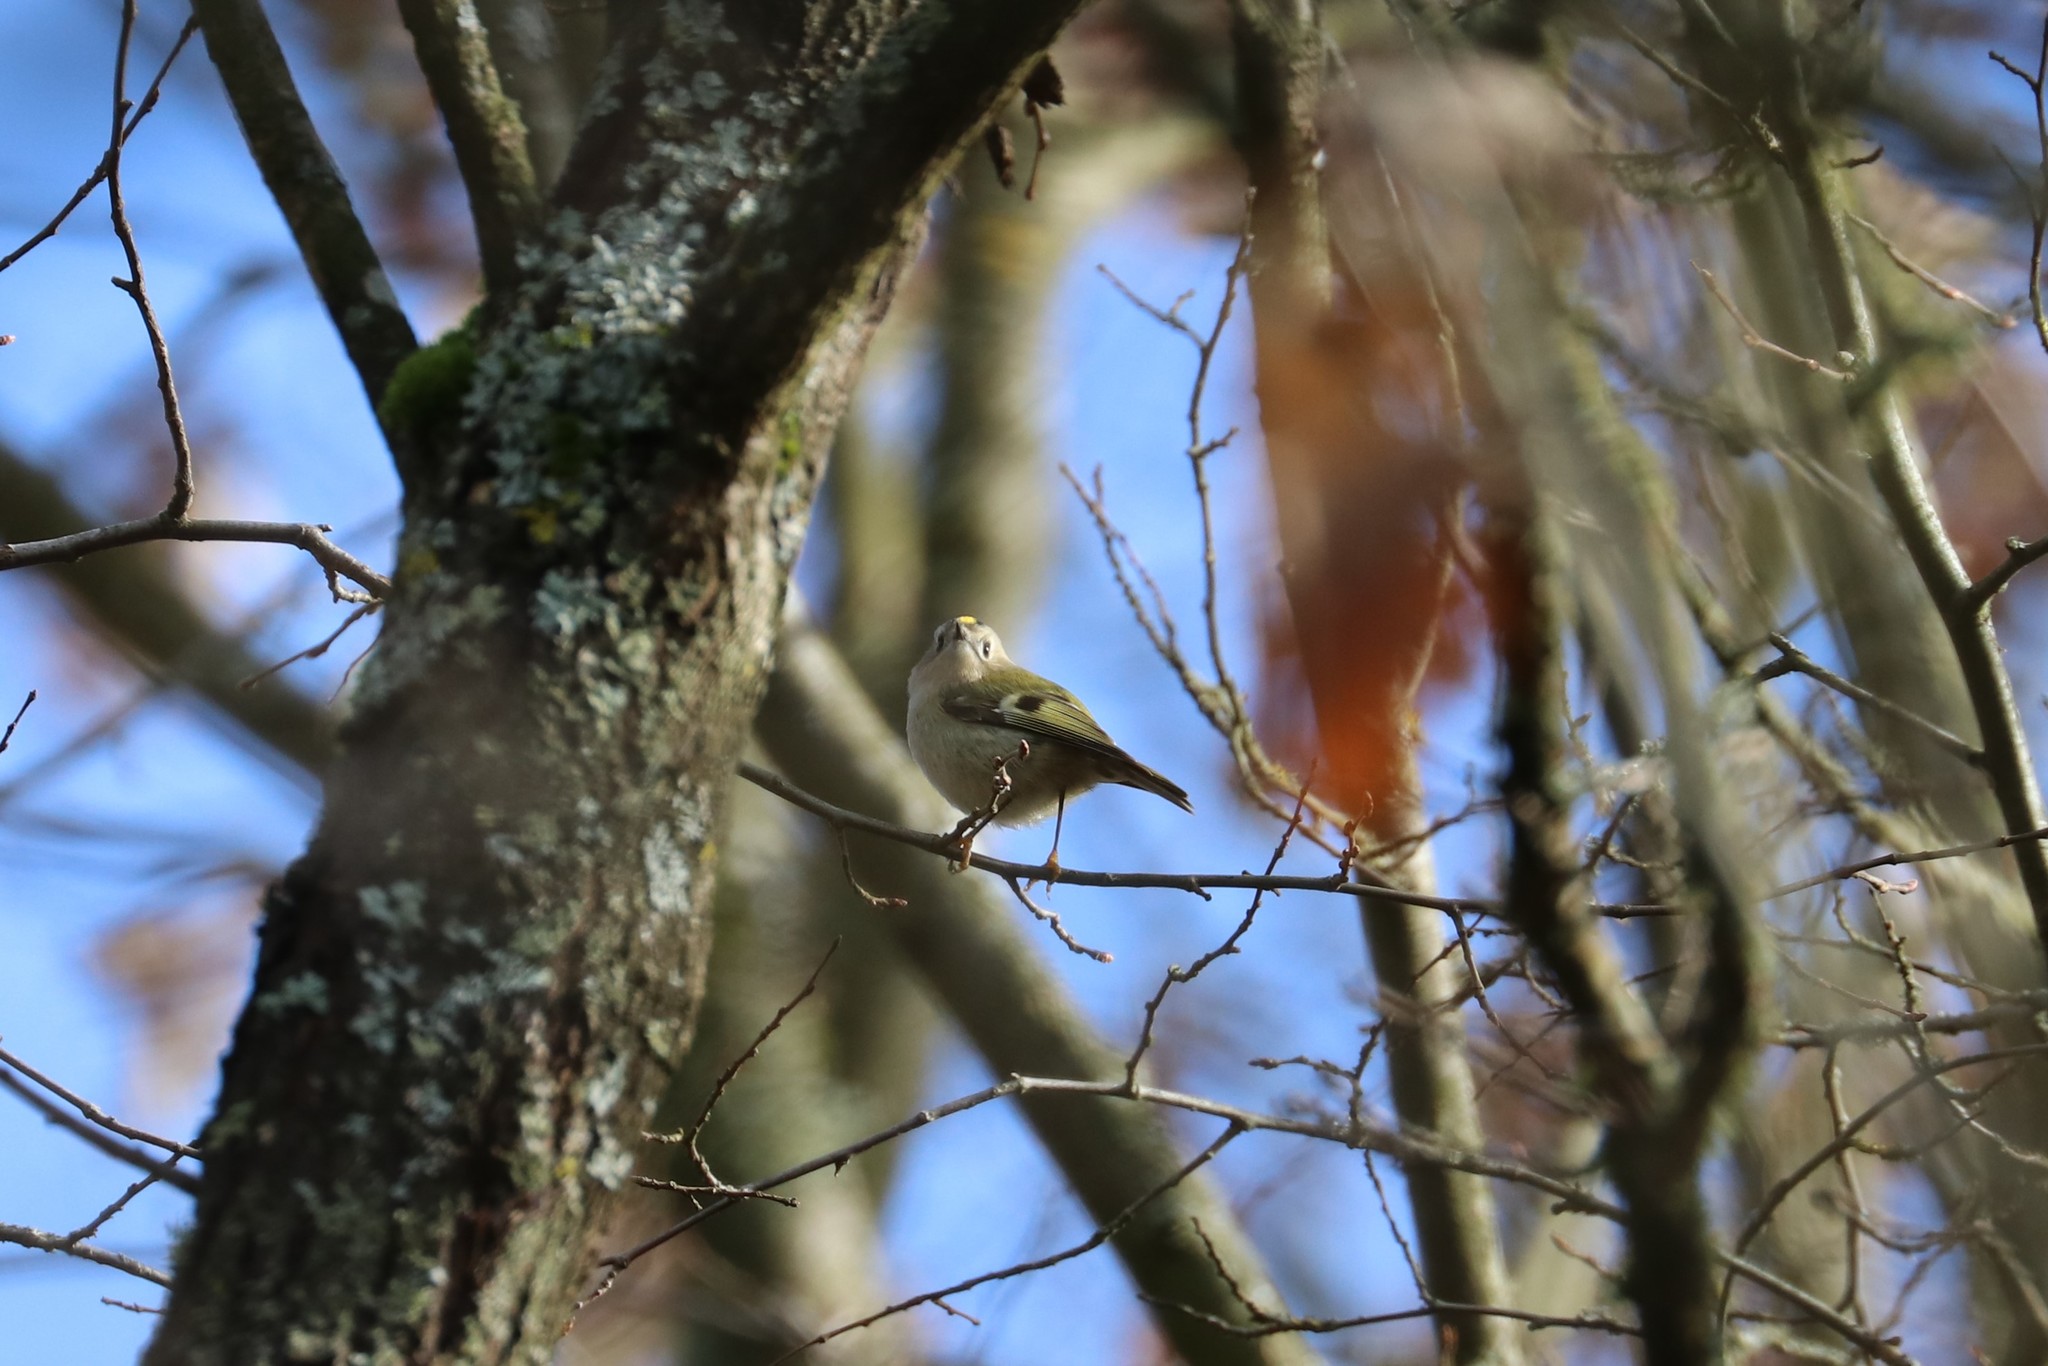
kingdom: Animalia
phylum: Chordata
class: Aves
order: Passeriformes
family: Regulidae
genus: Regulus
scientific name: Regulus regulus
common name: Goldcrest
